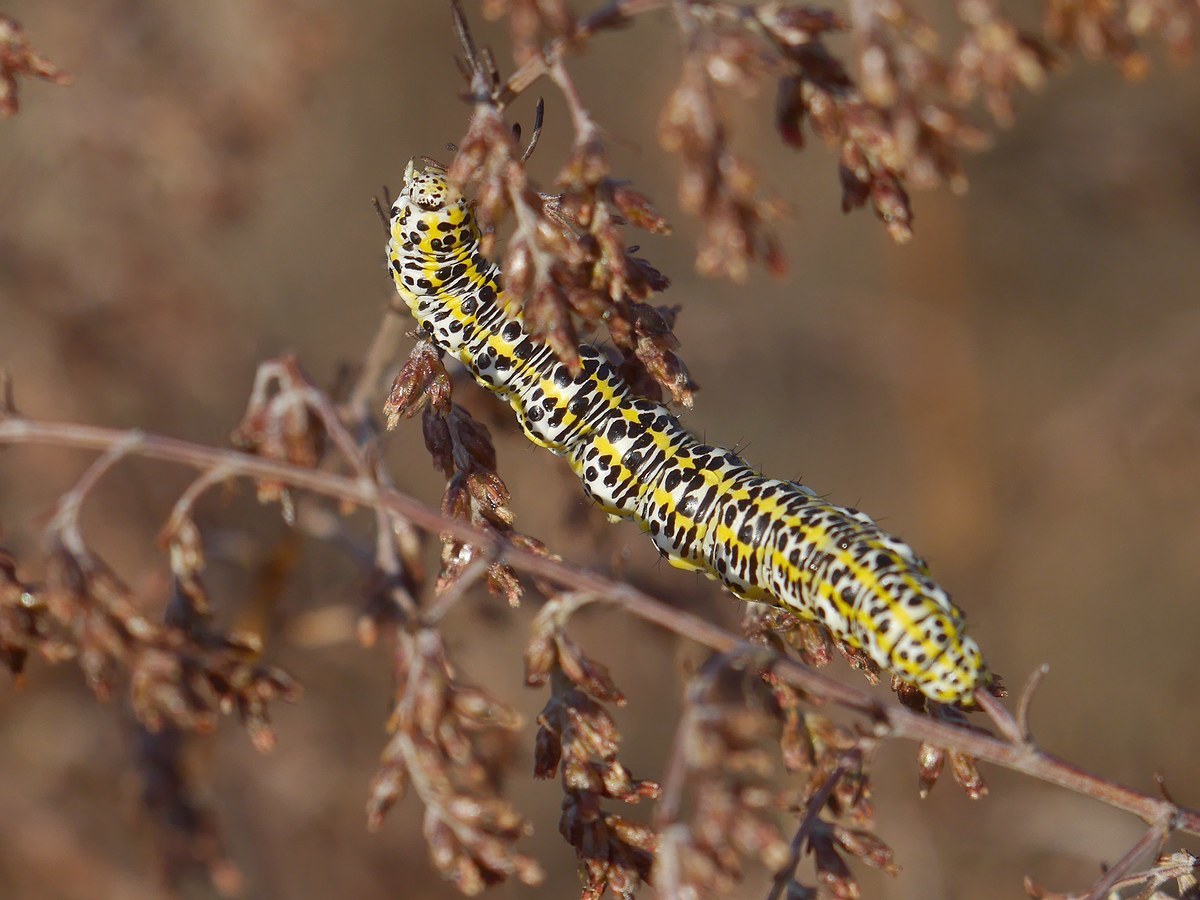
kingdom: Animalia
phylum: Arthropoda
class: Insecta
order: Lepidoptera
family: Noctuidae
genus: Cucullia
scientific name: Cucullia tanaceti
